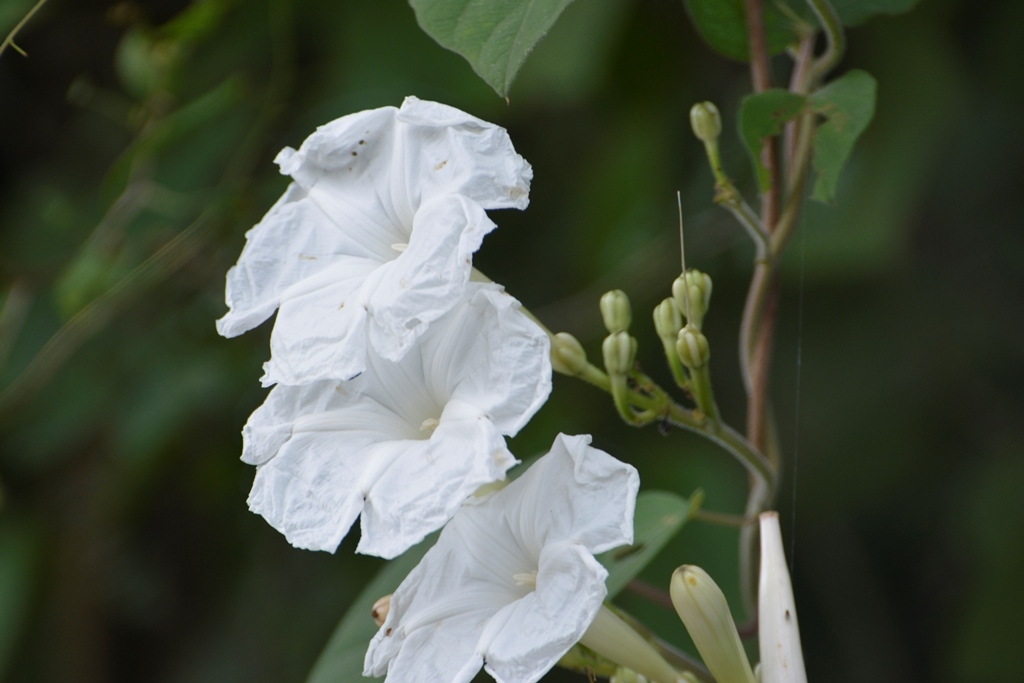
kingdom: Plantae
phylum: Tracheophyta
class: Magnoliopsida
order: Solanales
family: Convolvulaceae
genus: Ipomoea
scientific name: Ipomoea suaveolens
